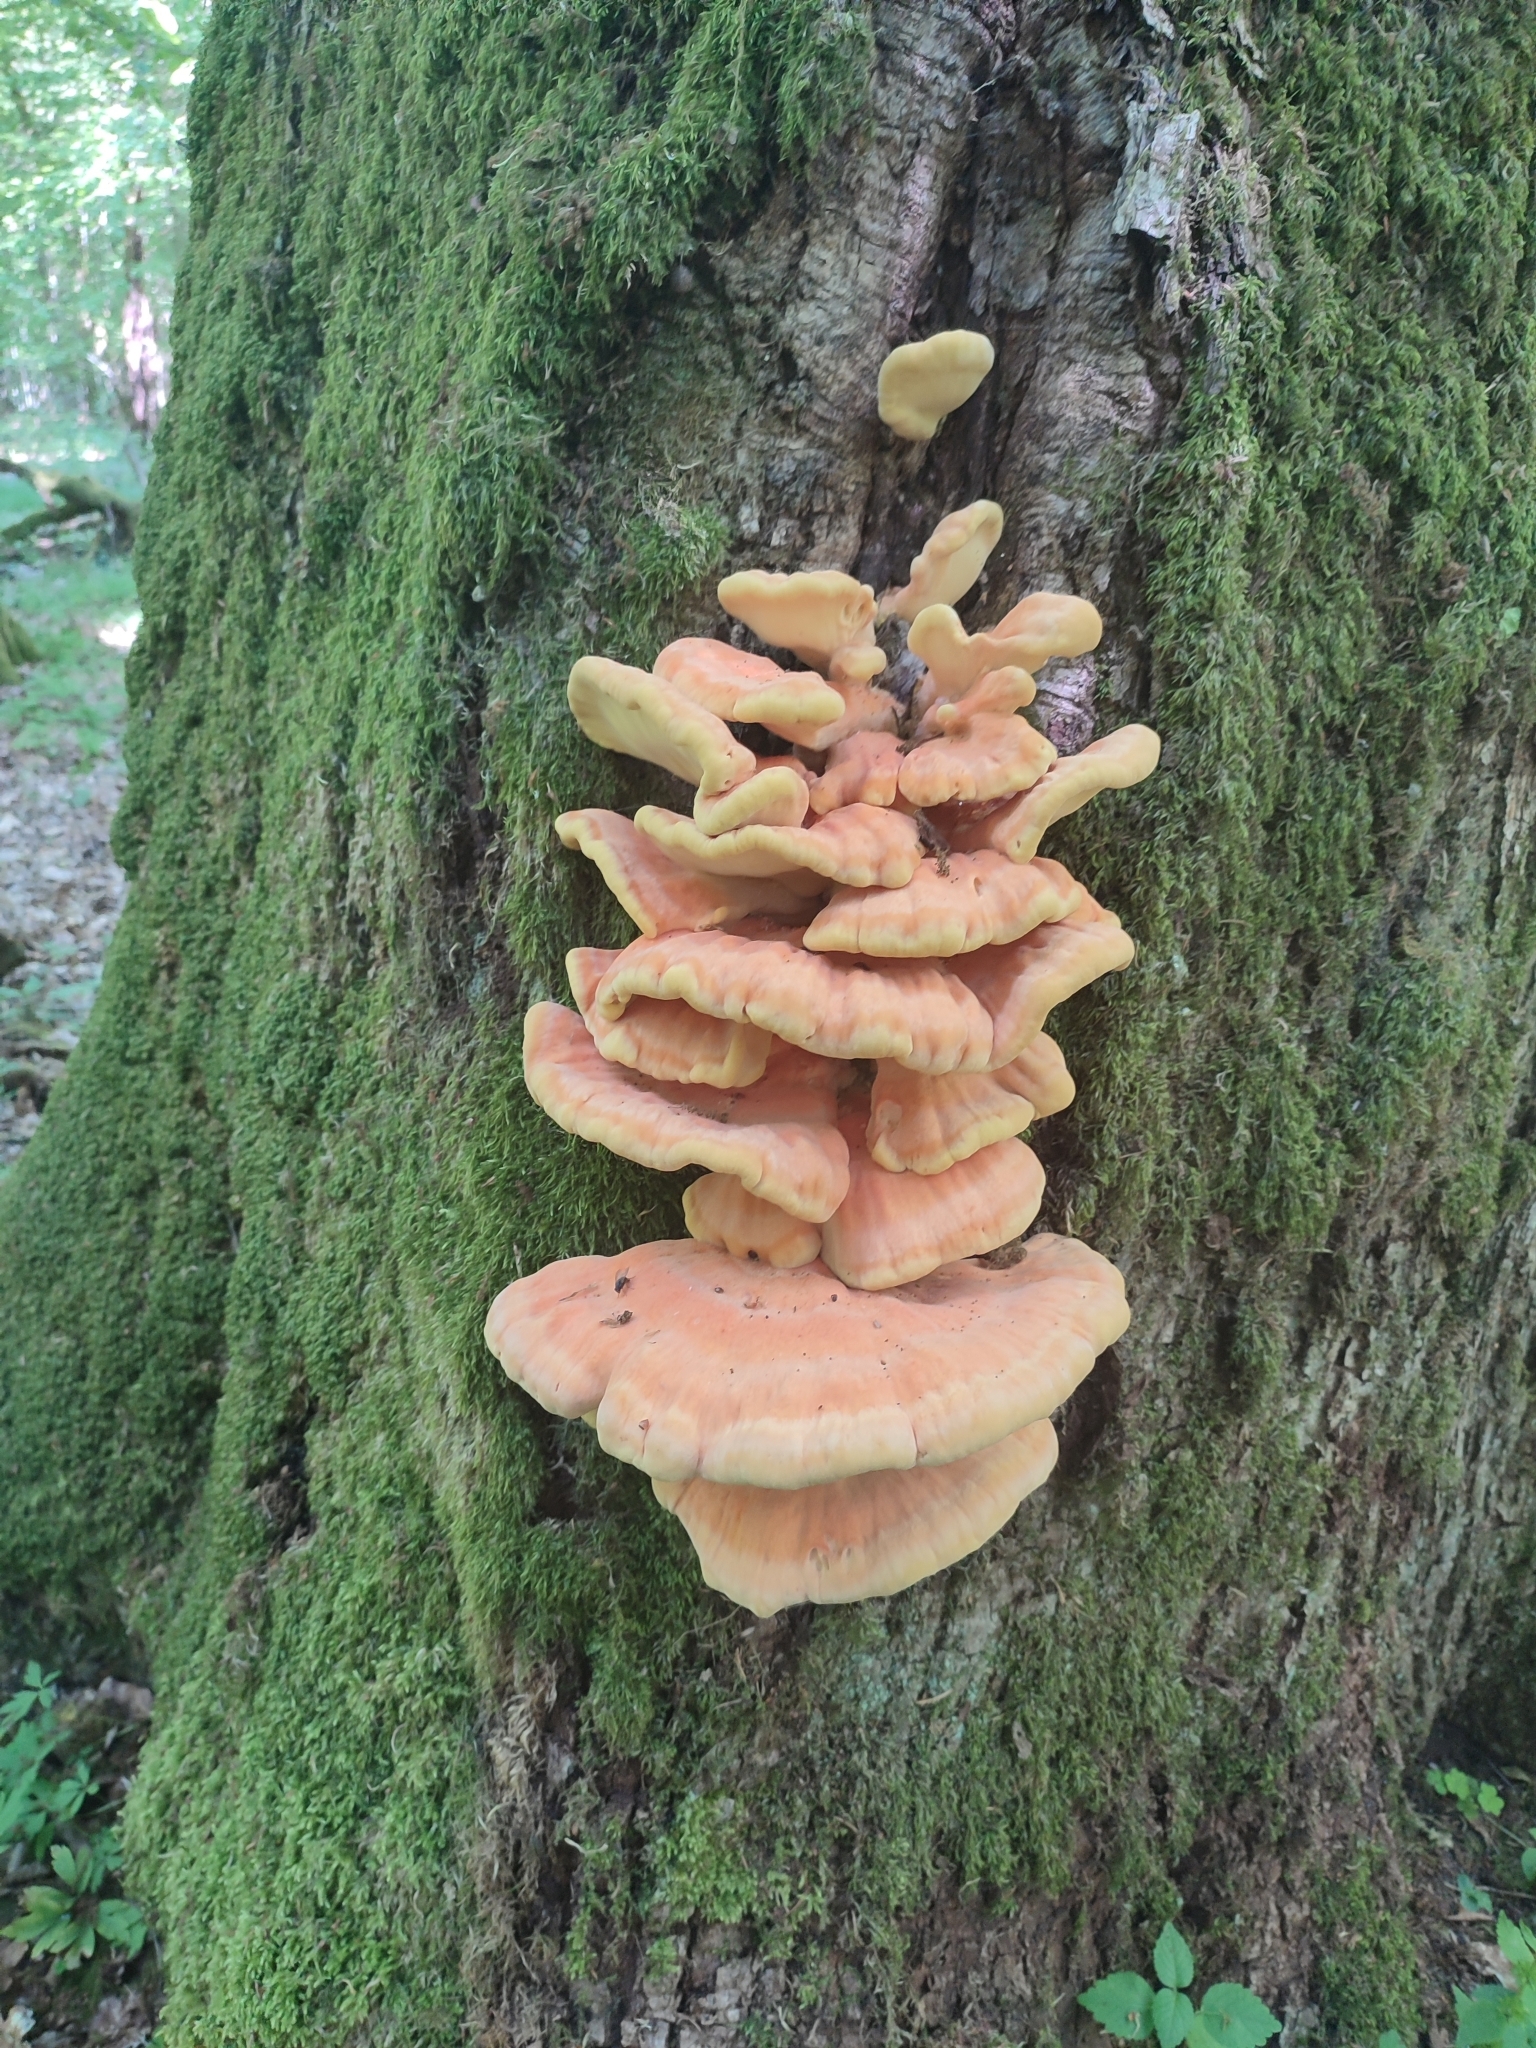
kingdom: Fungi
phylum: Basidiomycota
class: Agaricomycetes
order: Polyporales
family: Laetiporaceae
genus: Laetiporus
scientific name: Laetiporus sulphureus
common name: Chicken of the woods
